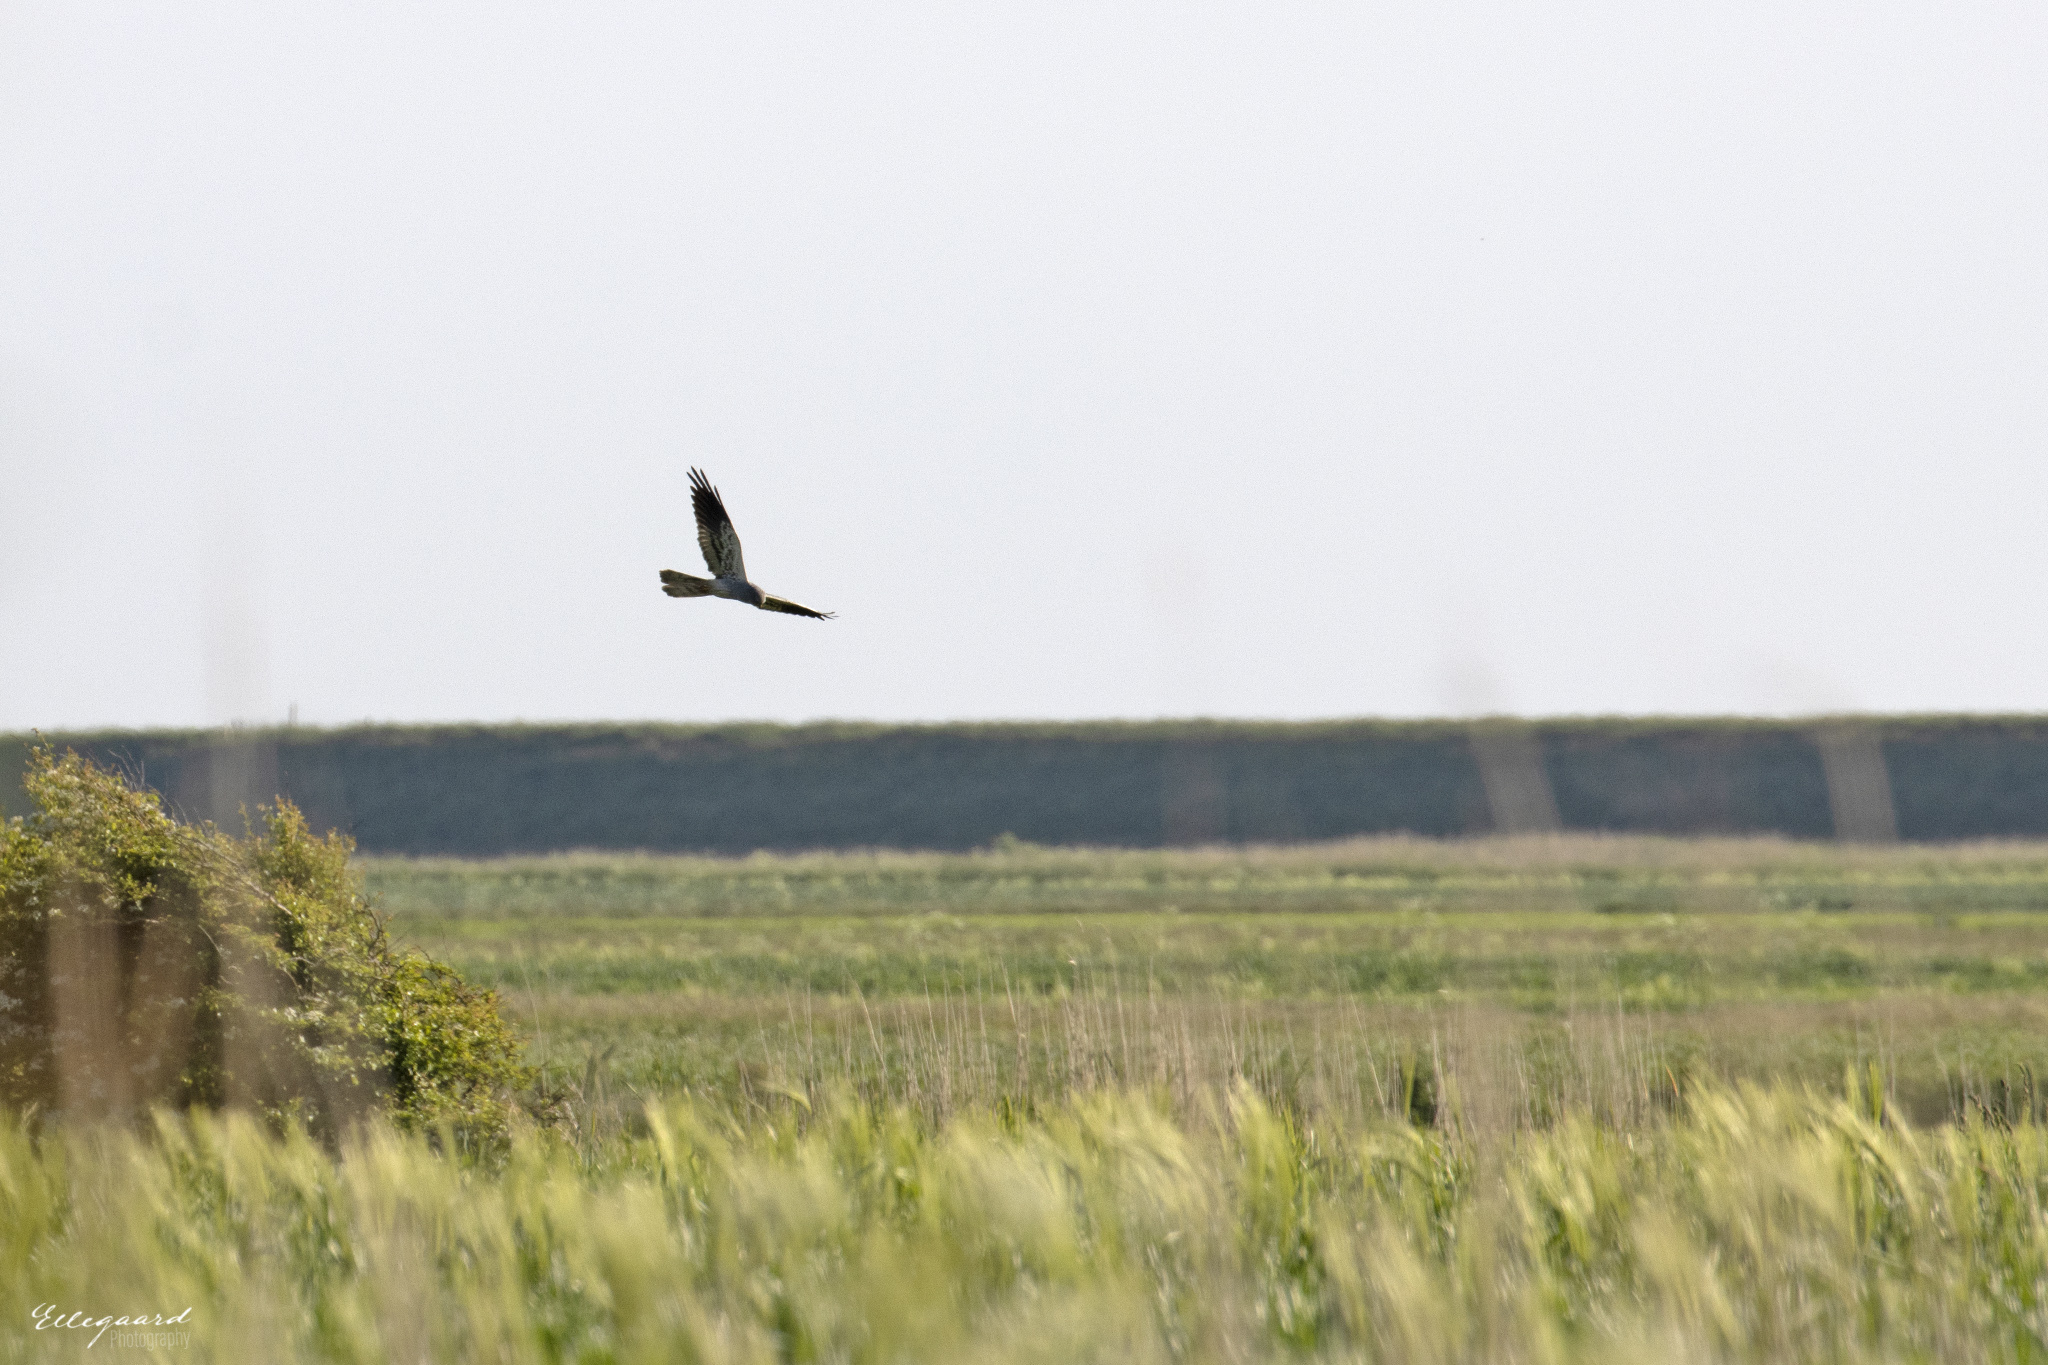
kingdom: Animalia
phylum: Chordata
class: Aves
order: Accipitriformes
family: Accipitridae
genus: Circus
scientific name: Circus pygargus
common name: Montagu's harrier
